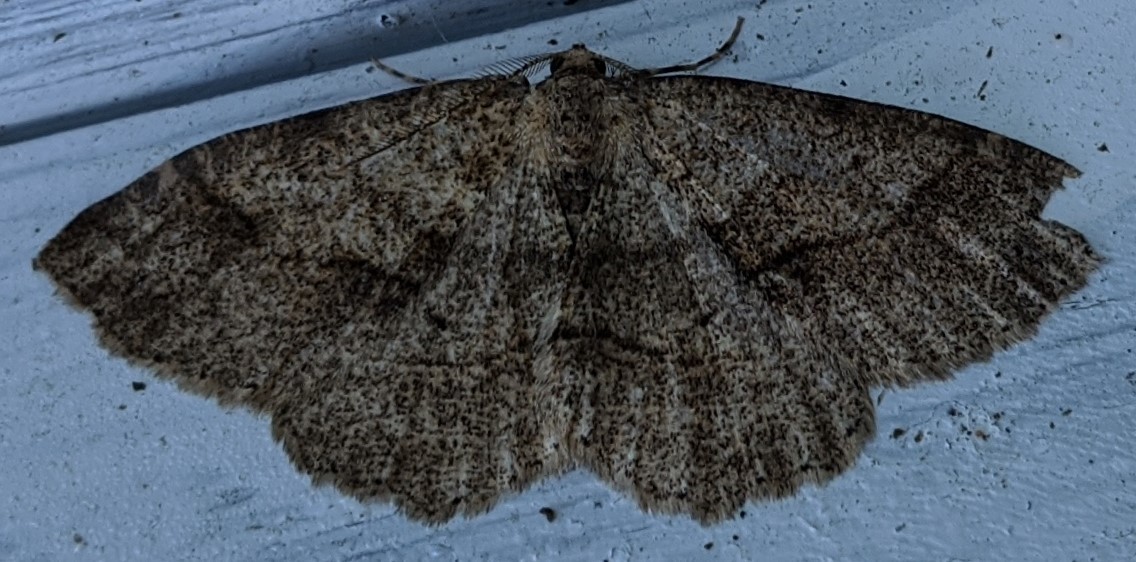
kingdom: Animalia
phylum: Arthropoda
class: Insecta
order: Lepidoptera
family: Geometridae
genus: Melanolophia
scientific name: Melanolophia signataria
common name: Signate melanolophia
